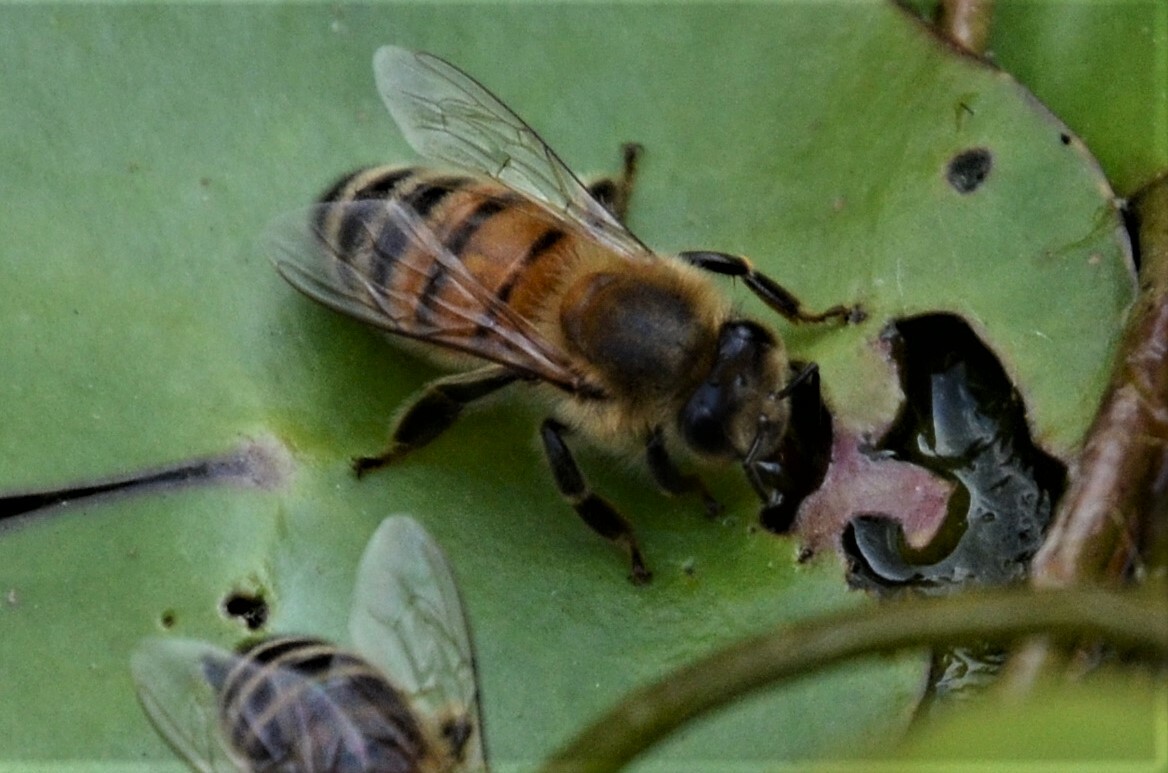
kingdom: Animalia
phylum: Arthropoda
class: Insecta
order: Hymenoptera
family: Apidae
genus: Apis
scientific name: Apis mellifera
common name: Honey bee
